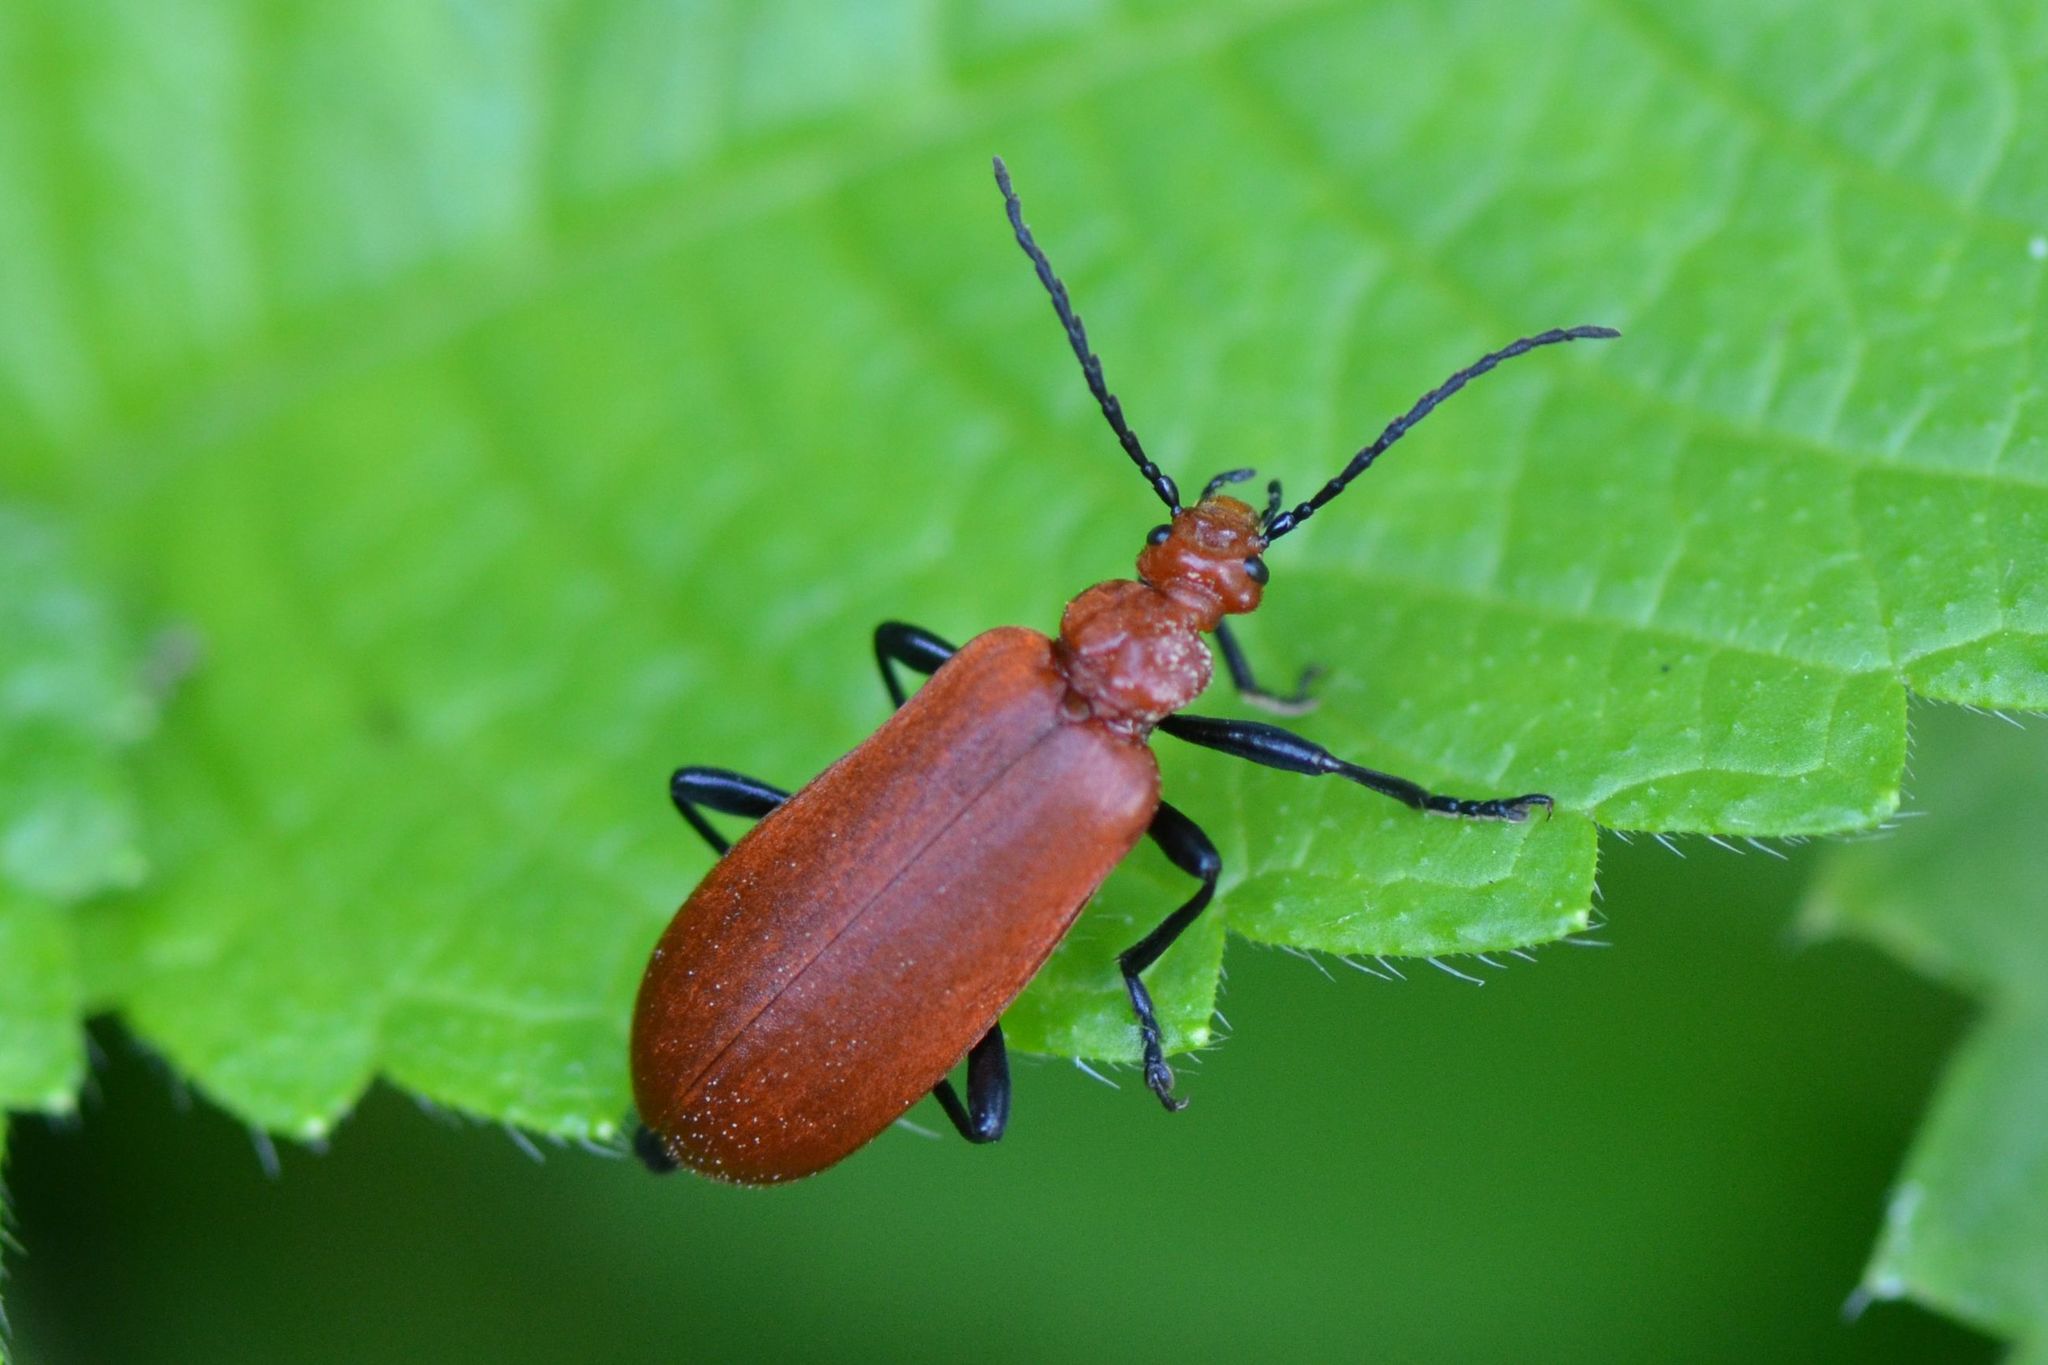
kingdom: Animalia
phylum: Arthropoda
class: Insecta
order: Coleoptera
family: Pyrochroidae
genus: Pyrochroa
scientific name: Pyrochroa serraticornis
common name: Red-headed cardinal beetle
